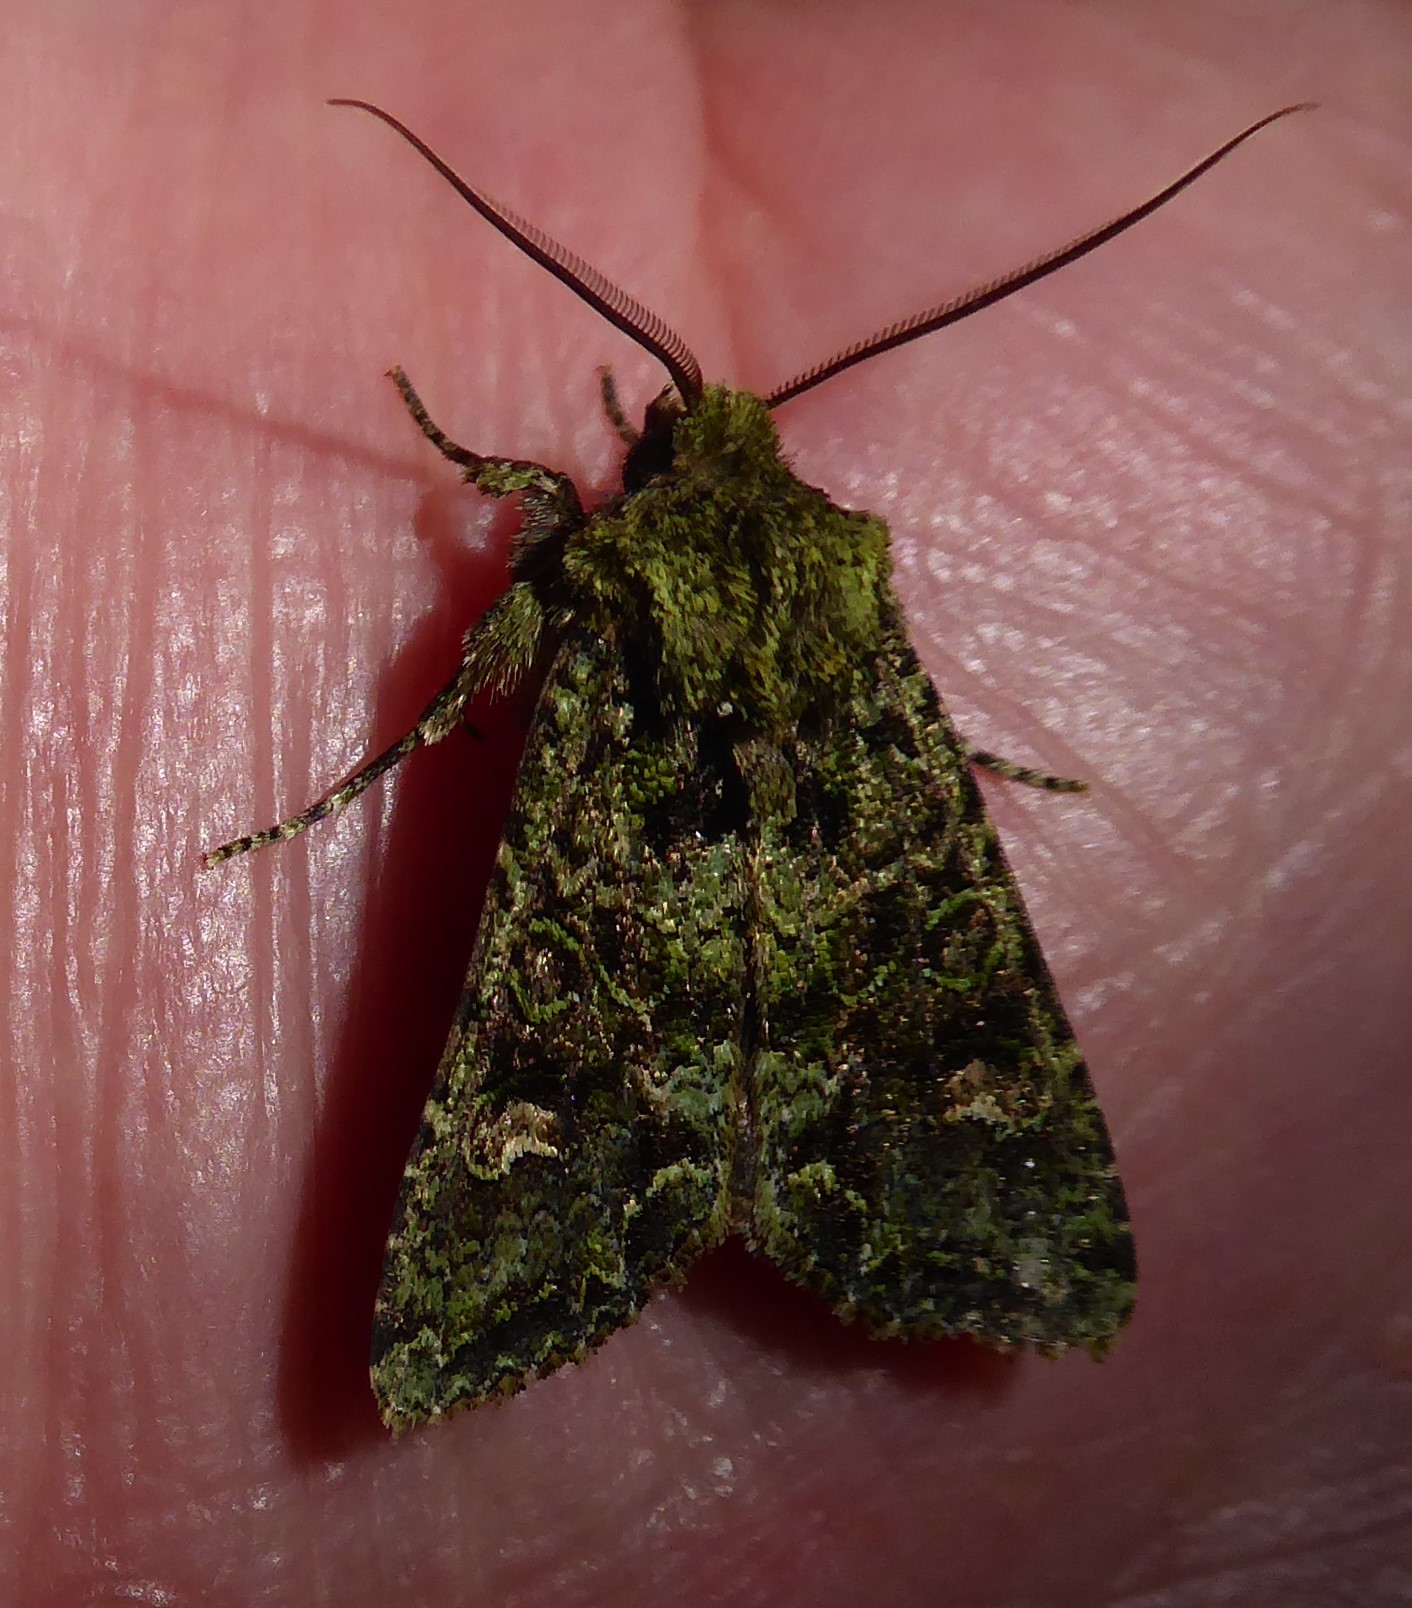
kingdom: Animalia
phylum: Arthropoda
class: Insecta
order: Lepidoptera
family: Noctuidae
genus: Ichneutica
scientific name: Ichneutica
